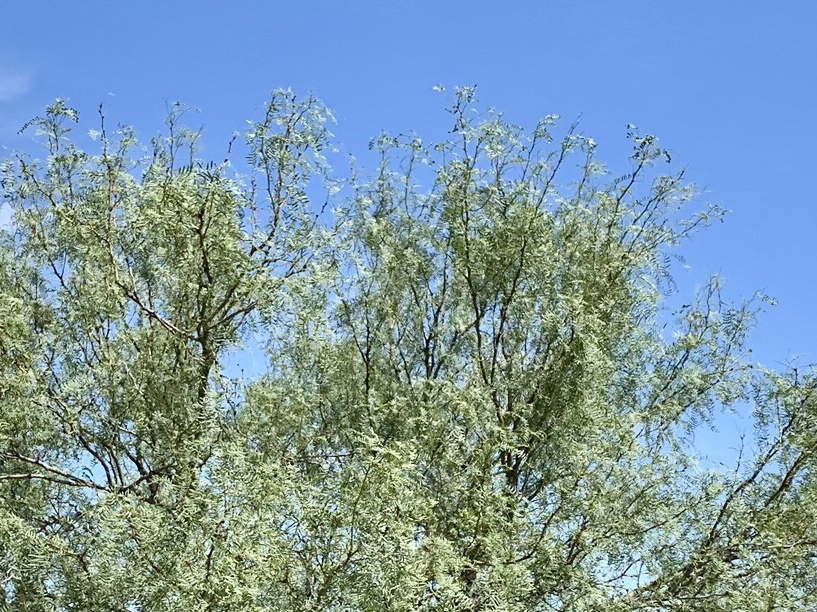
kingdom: Plantae
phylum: Tracheophyta
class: Magnoliopsida
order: Fabales
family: Fabaceae
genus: Prosopis
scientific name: Prosopis glandulosa
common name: Honey mesquite
